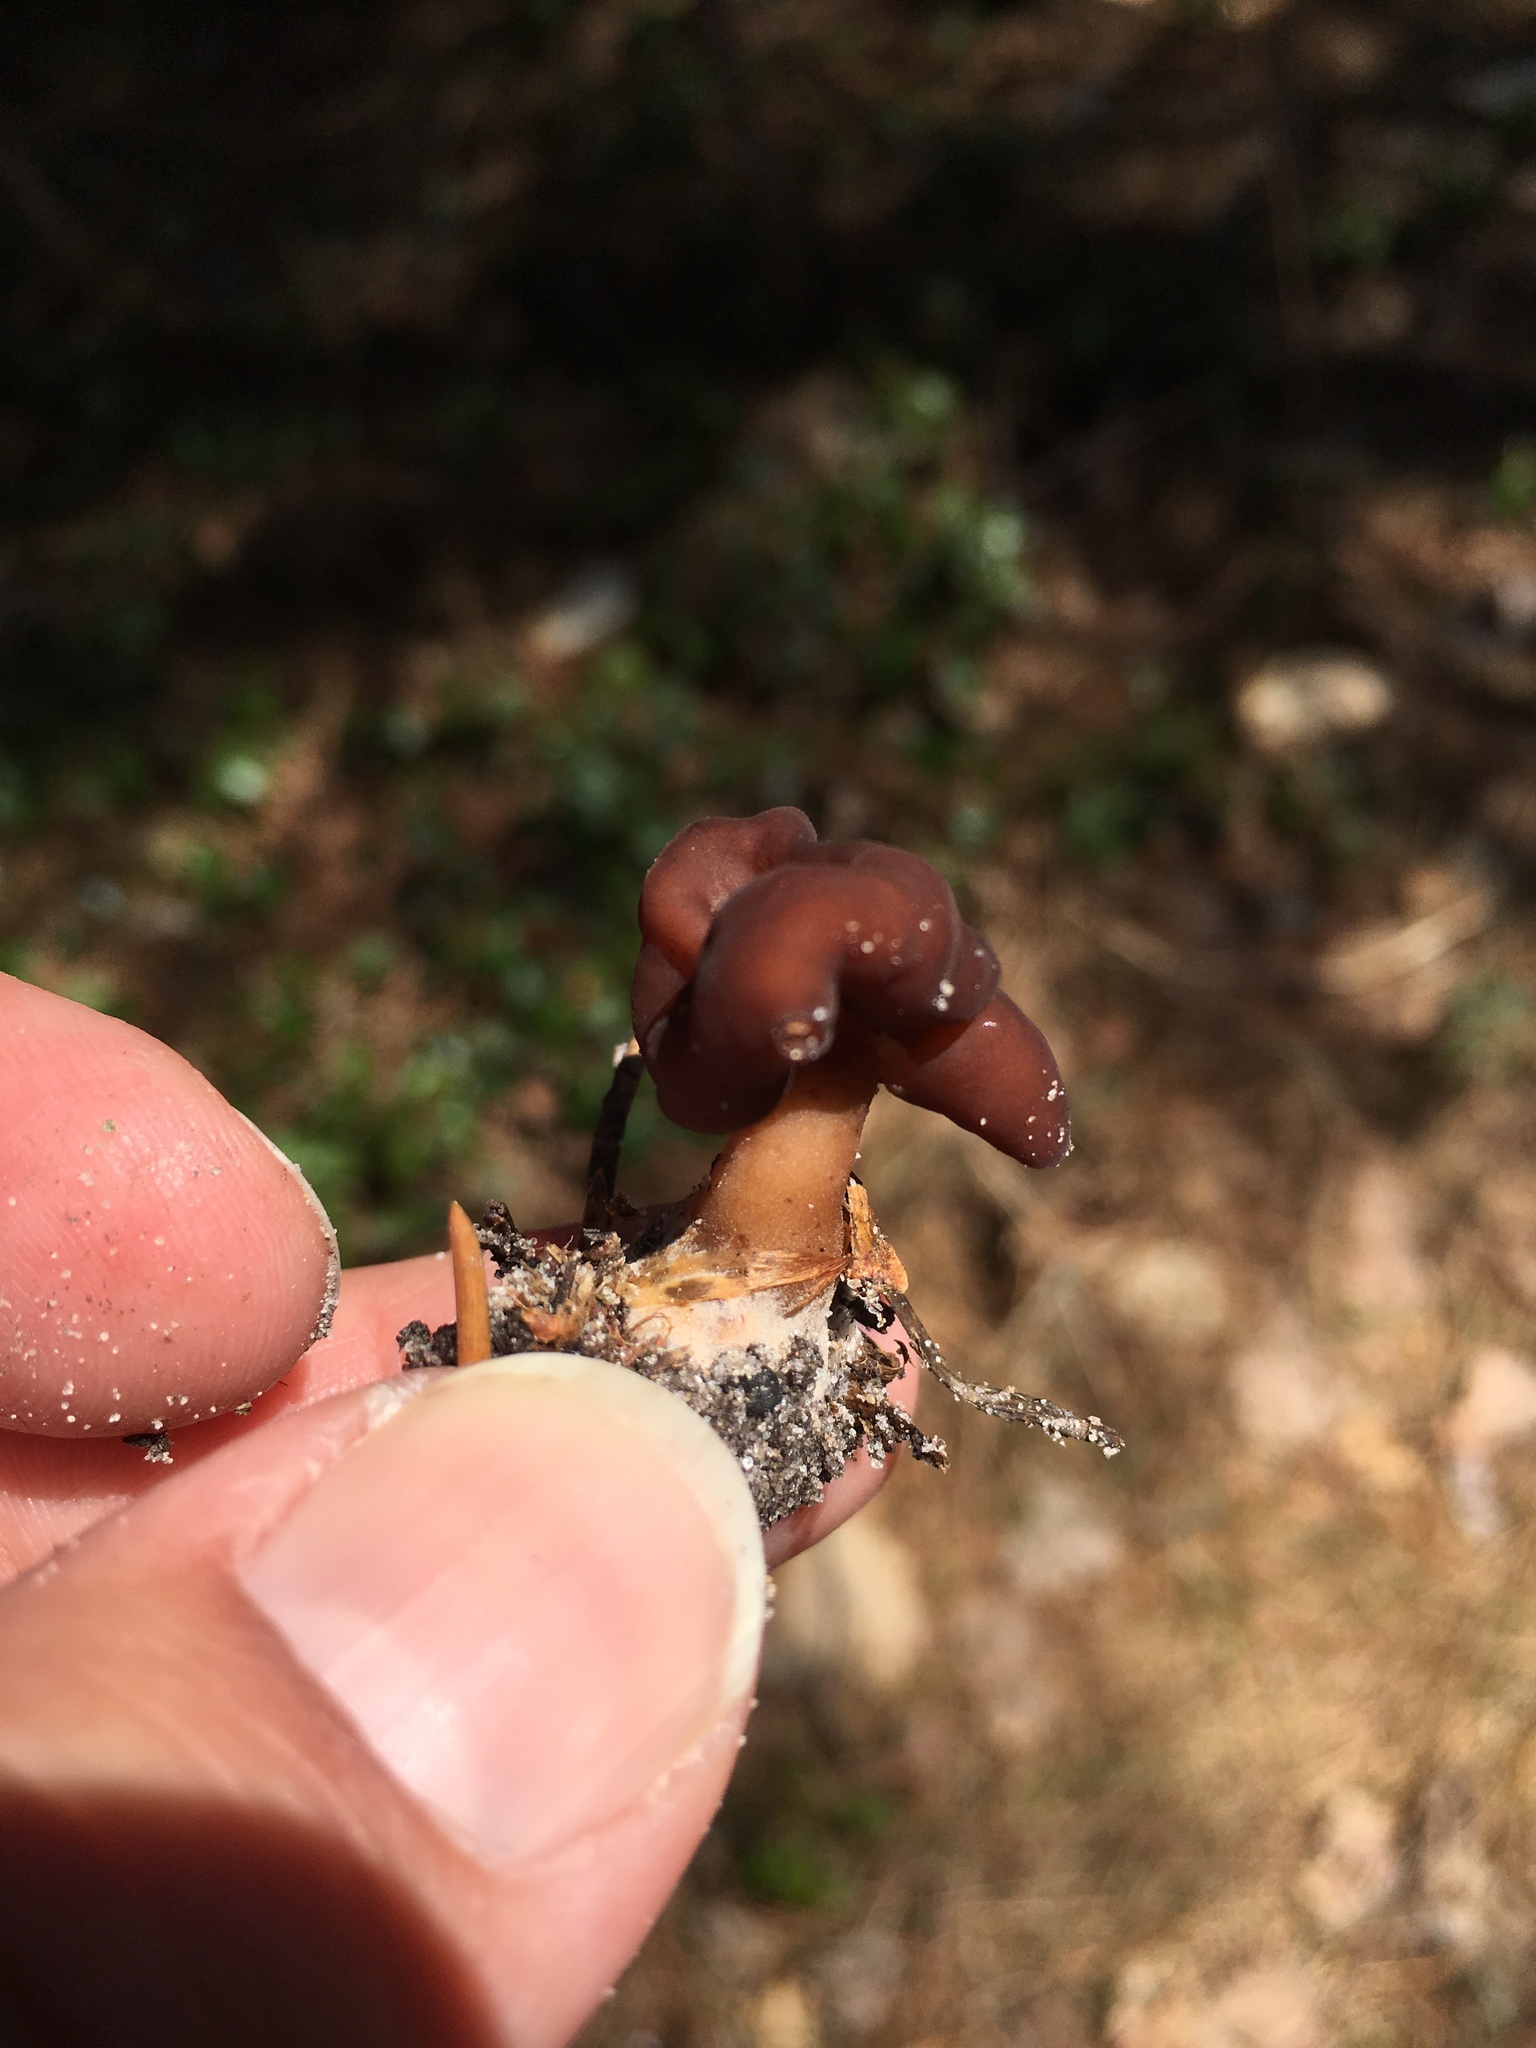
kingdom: Fungi
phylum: Ascomycota
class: Pezizomycetes
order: Pezizales
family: Discinaceae
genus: Gyromitra
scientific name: Gyromitra esculenta
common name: False morel
